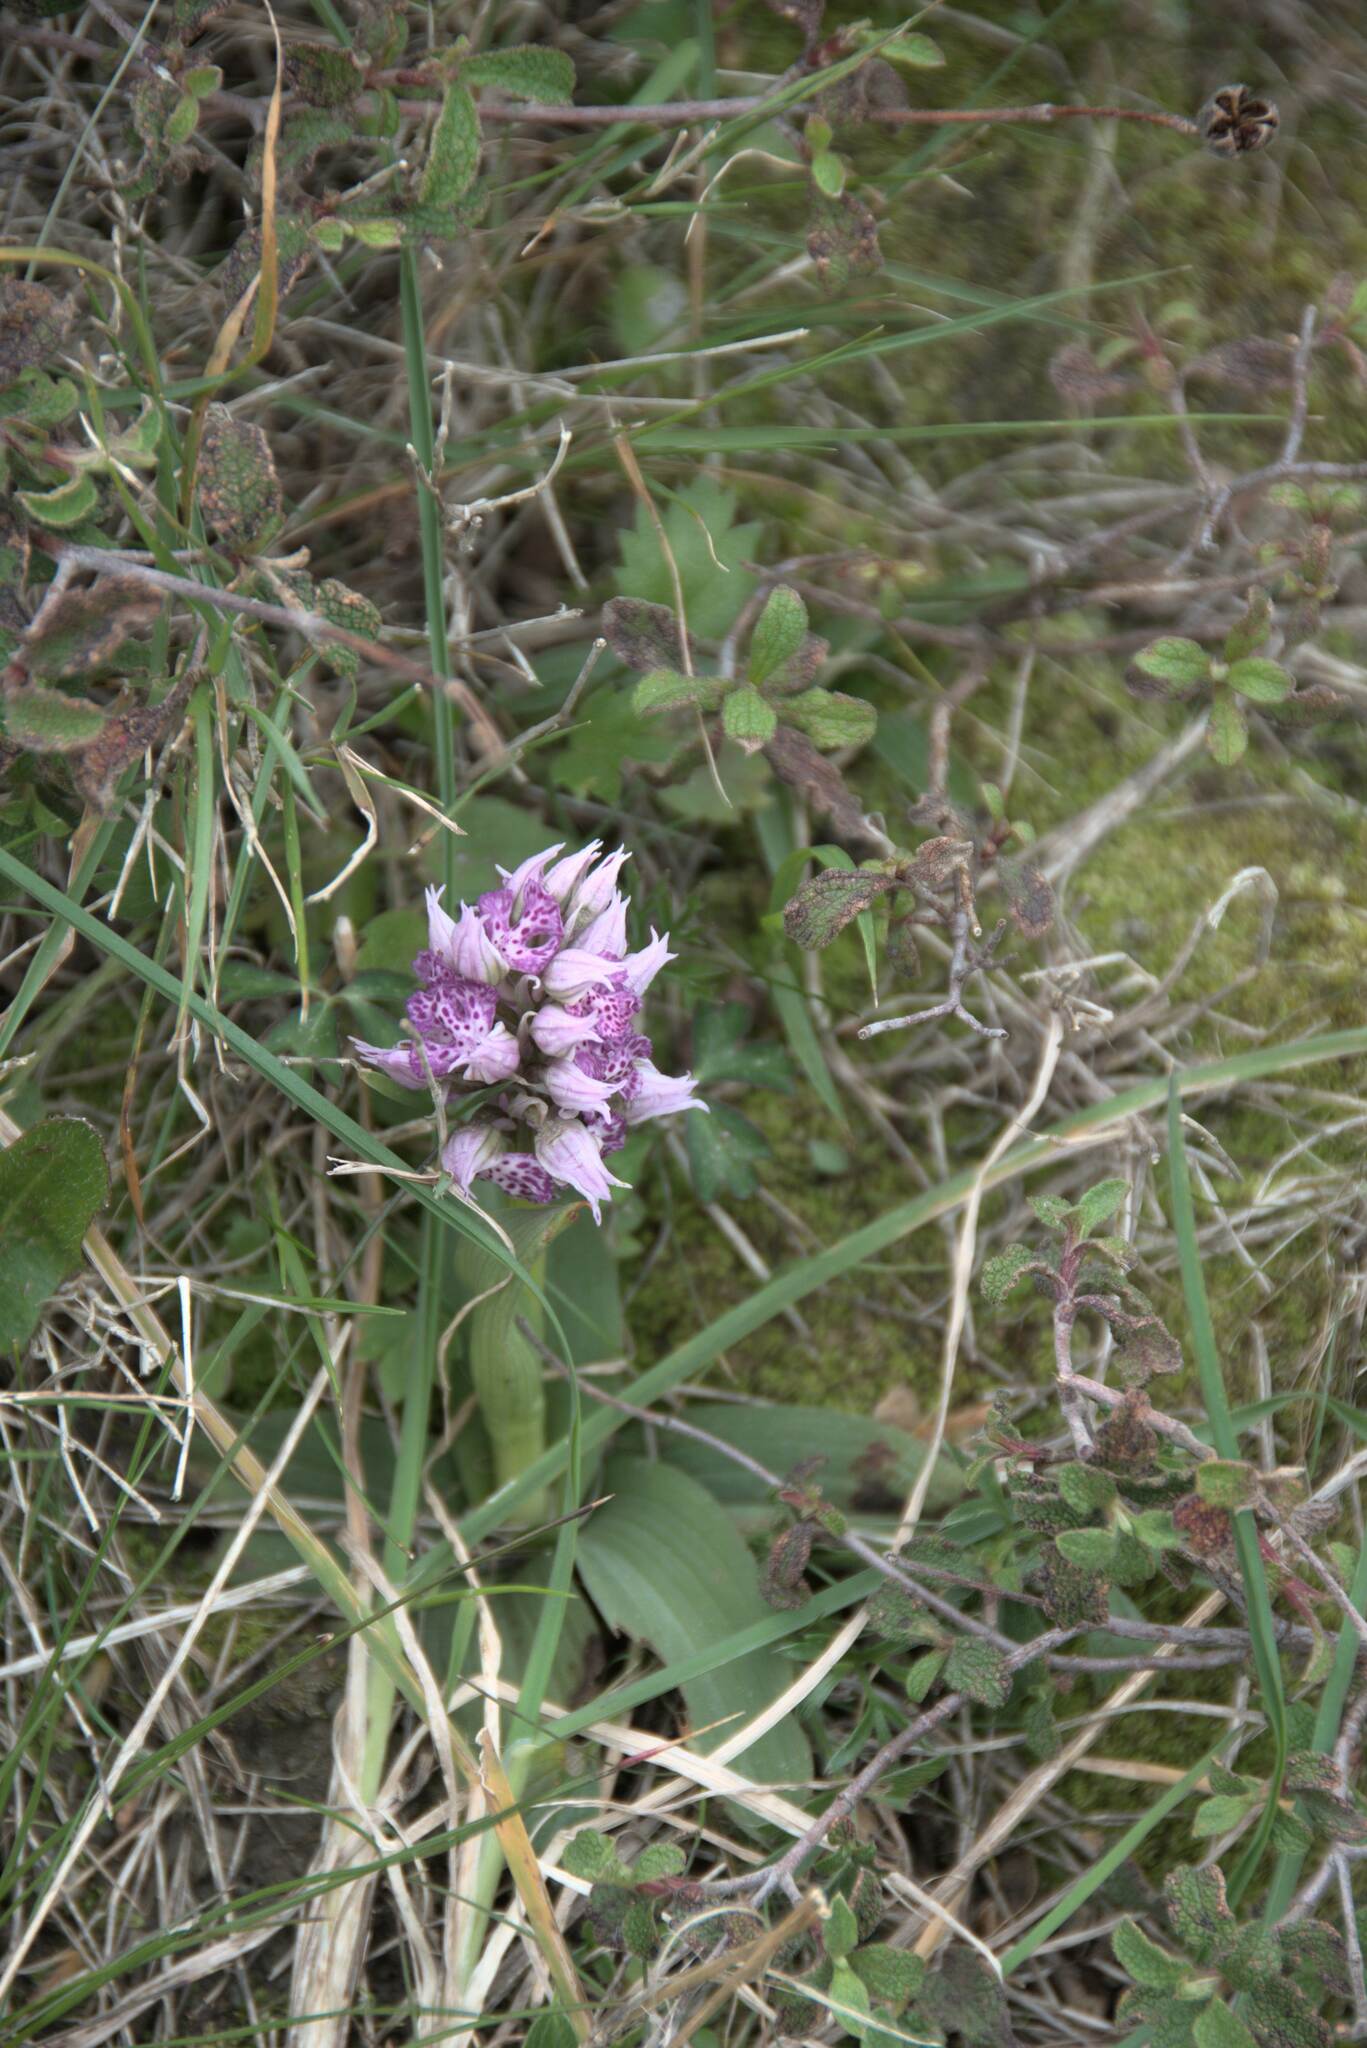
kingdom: Plantae
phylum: Tracheophyta
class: Liliopsida
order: Asparagales
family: Orchidaceae
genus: Neotinea
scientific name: Neotinea lactea
